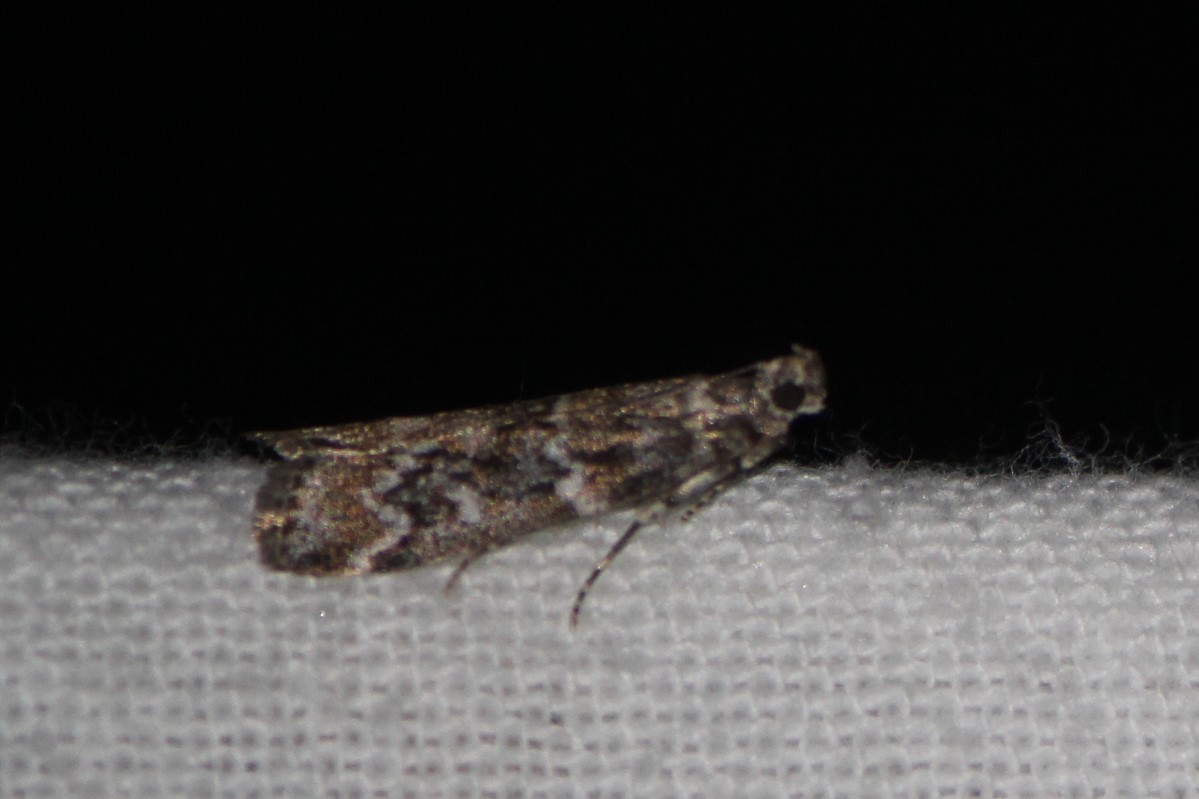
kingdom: Animalia
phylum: Arthropoda
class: Insecta
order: Lepidoptera
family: Pyralidae
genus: Dioryctria
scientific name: Dioryctria reniculelloides
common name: Spruce coneworm moth
